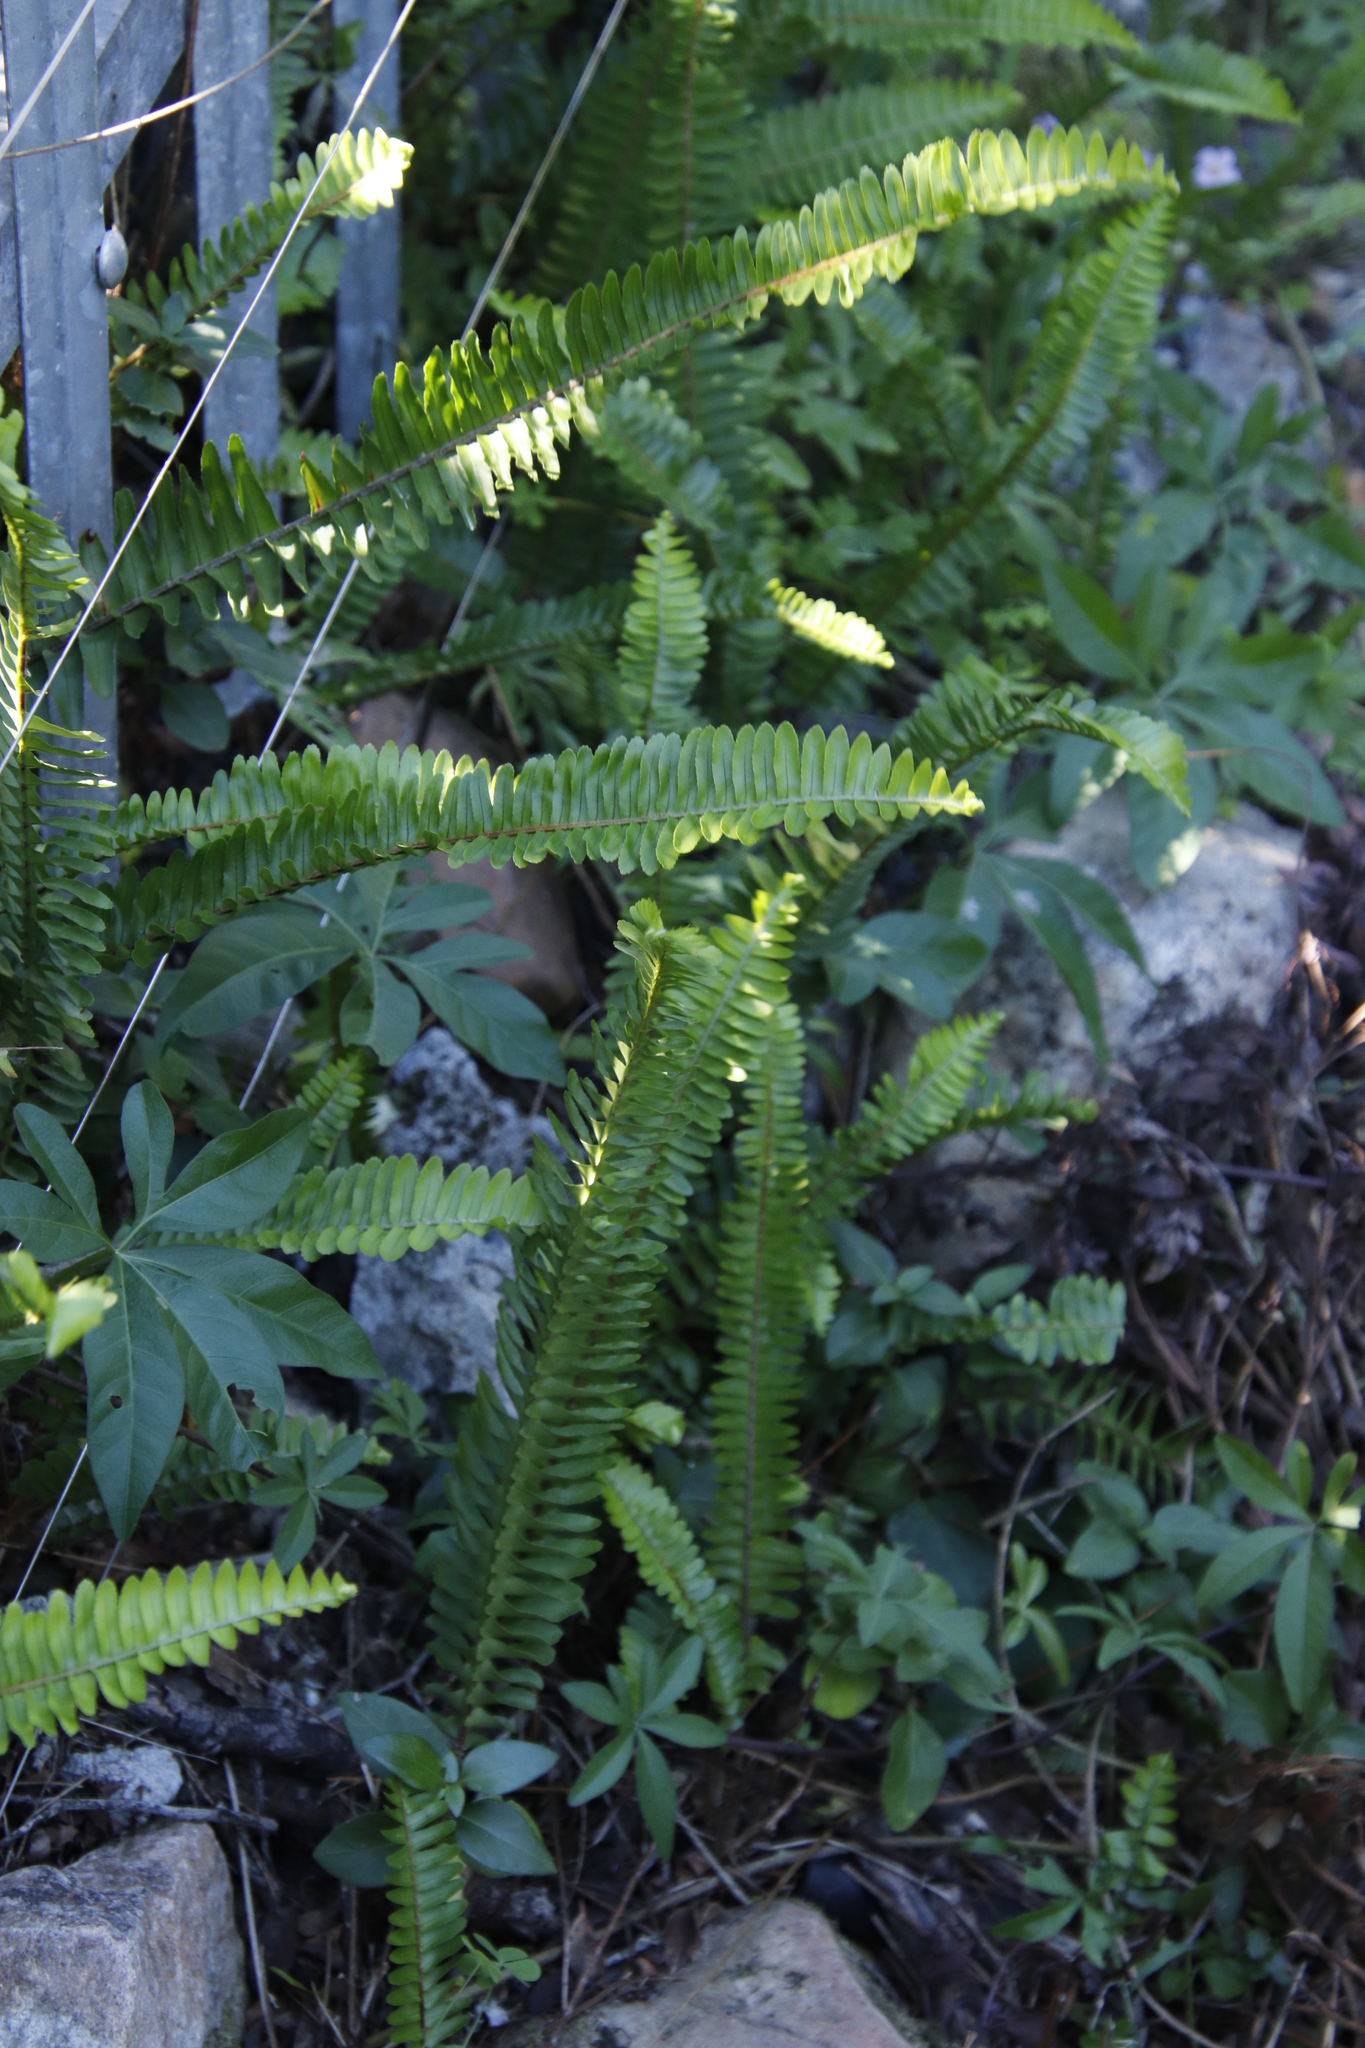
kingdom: Plantae
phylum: Tracheophyta
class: Polypodiopsida
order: Polypodiales
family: Nephrolepidaceae
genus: Nephrolepis
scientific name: Nephrolepis cordifolia
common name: Narrow swordfern
